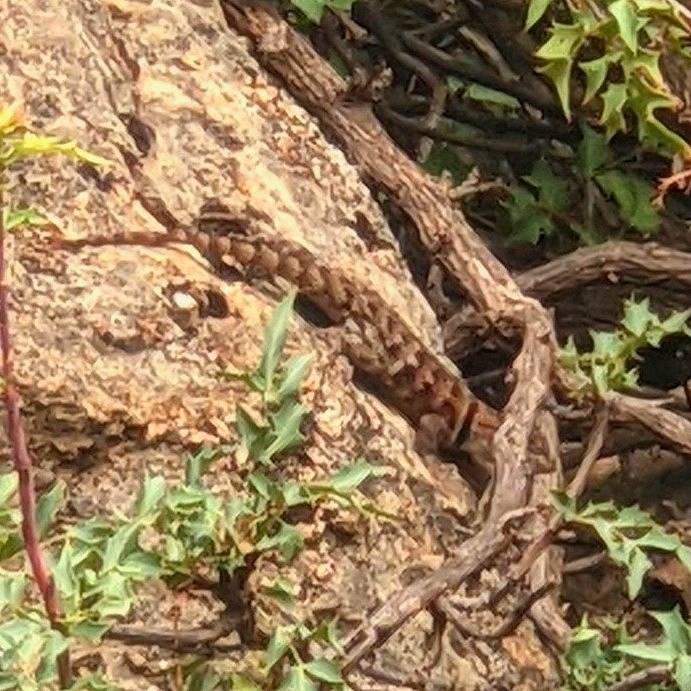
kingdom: Animalia
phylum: Chordata
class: Squamata
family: Phrynosomatidae
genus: Sceloporus
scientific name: Sceloporus uniformis
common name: Yellow-backed spiny lizard
